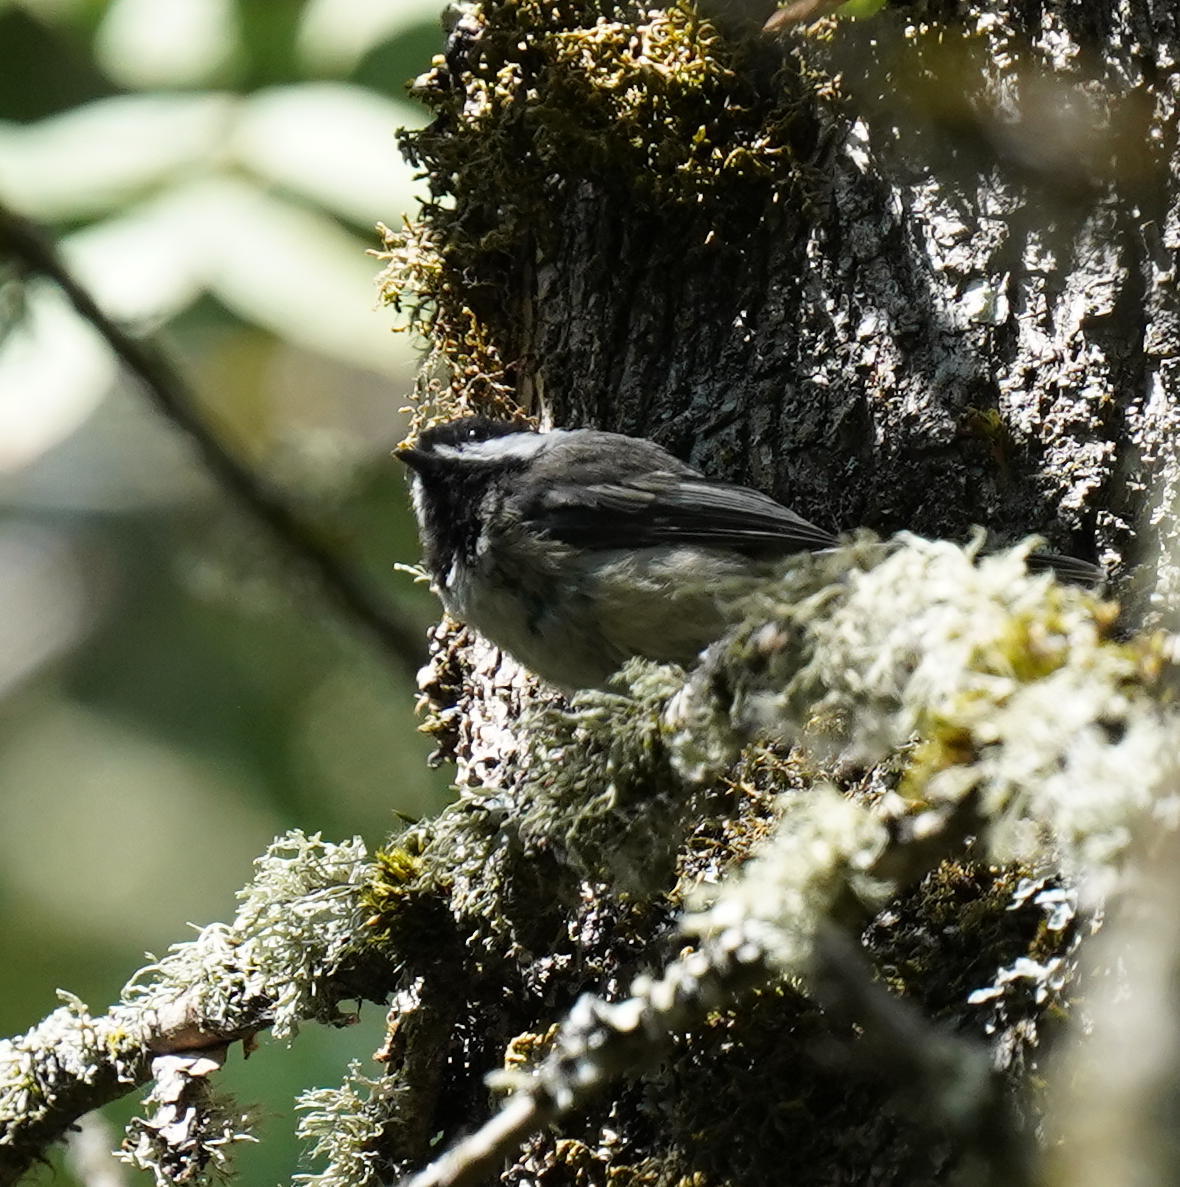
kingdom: Animalia
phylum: Chordata
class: Aves
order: Passeriformes
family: Paridae
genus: Poecile
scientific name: Poecile atricapillus
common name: Black-capped chickadee
